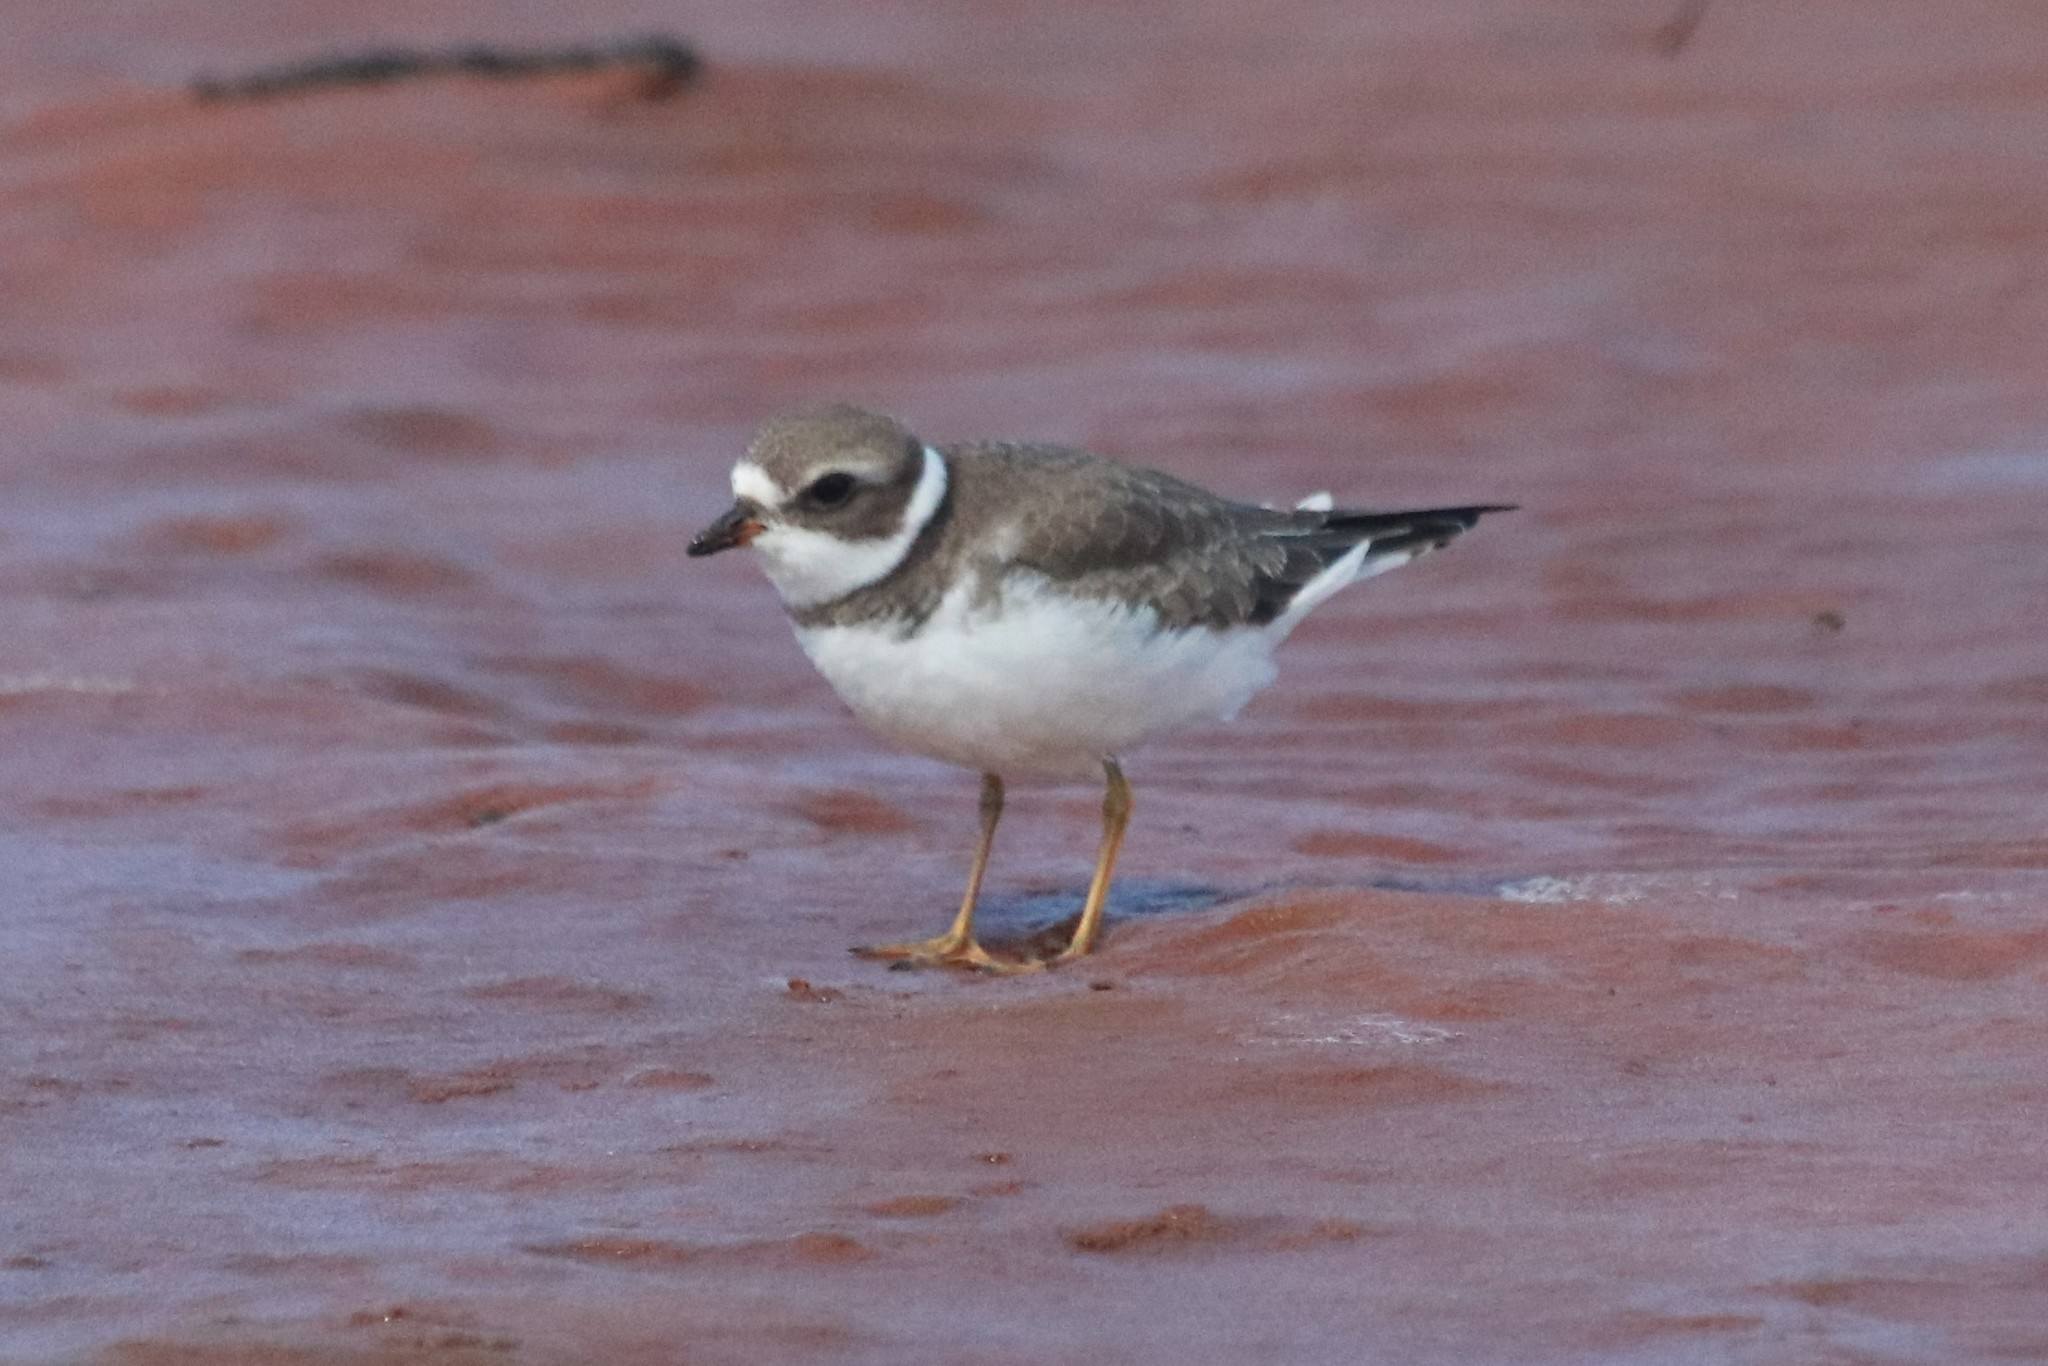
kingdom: Animalia
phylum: Chordata
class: Aves
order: Charadriiformes
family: Charadriidae
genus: Charadrius
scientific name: Charadrius semipalmatus
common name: Semipalmated plover
